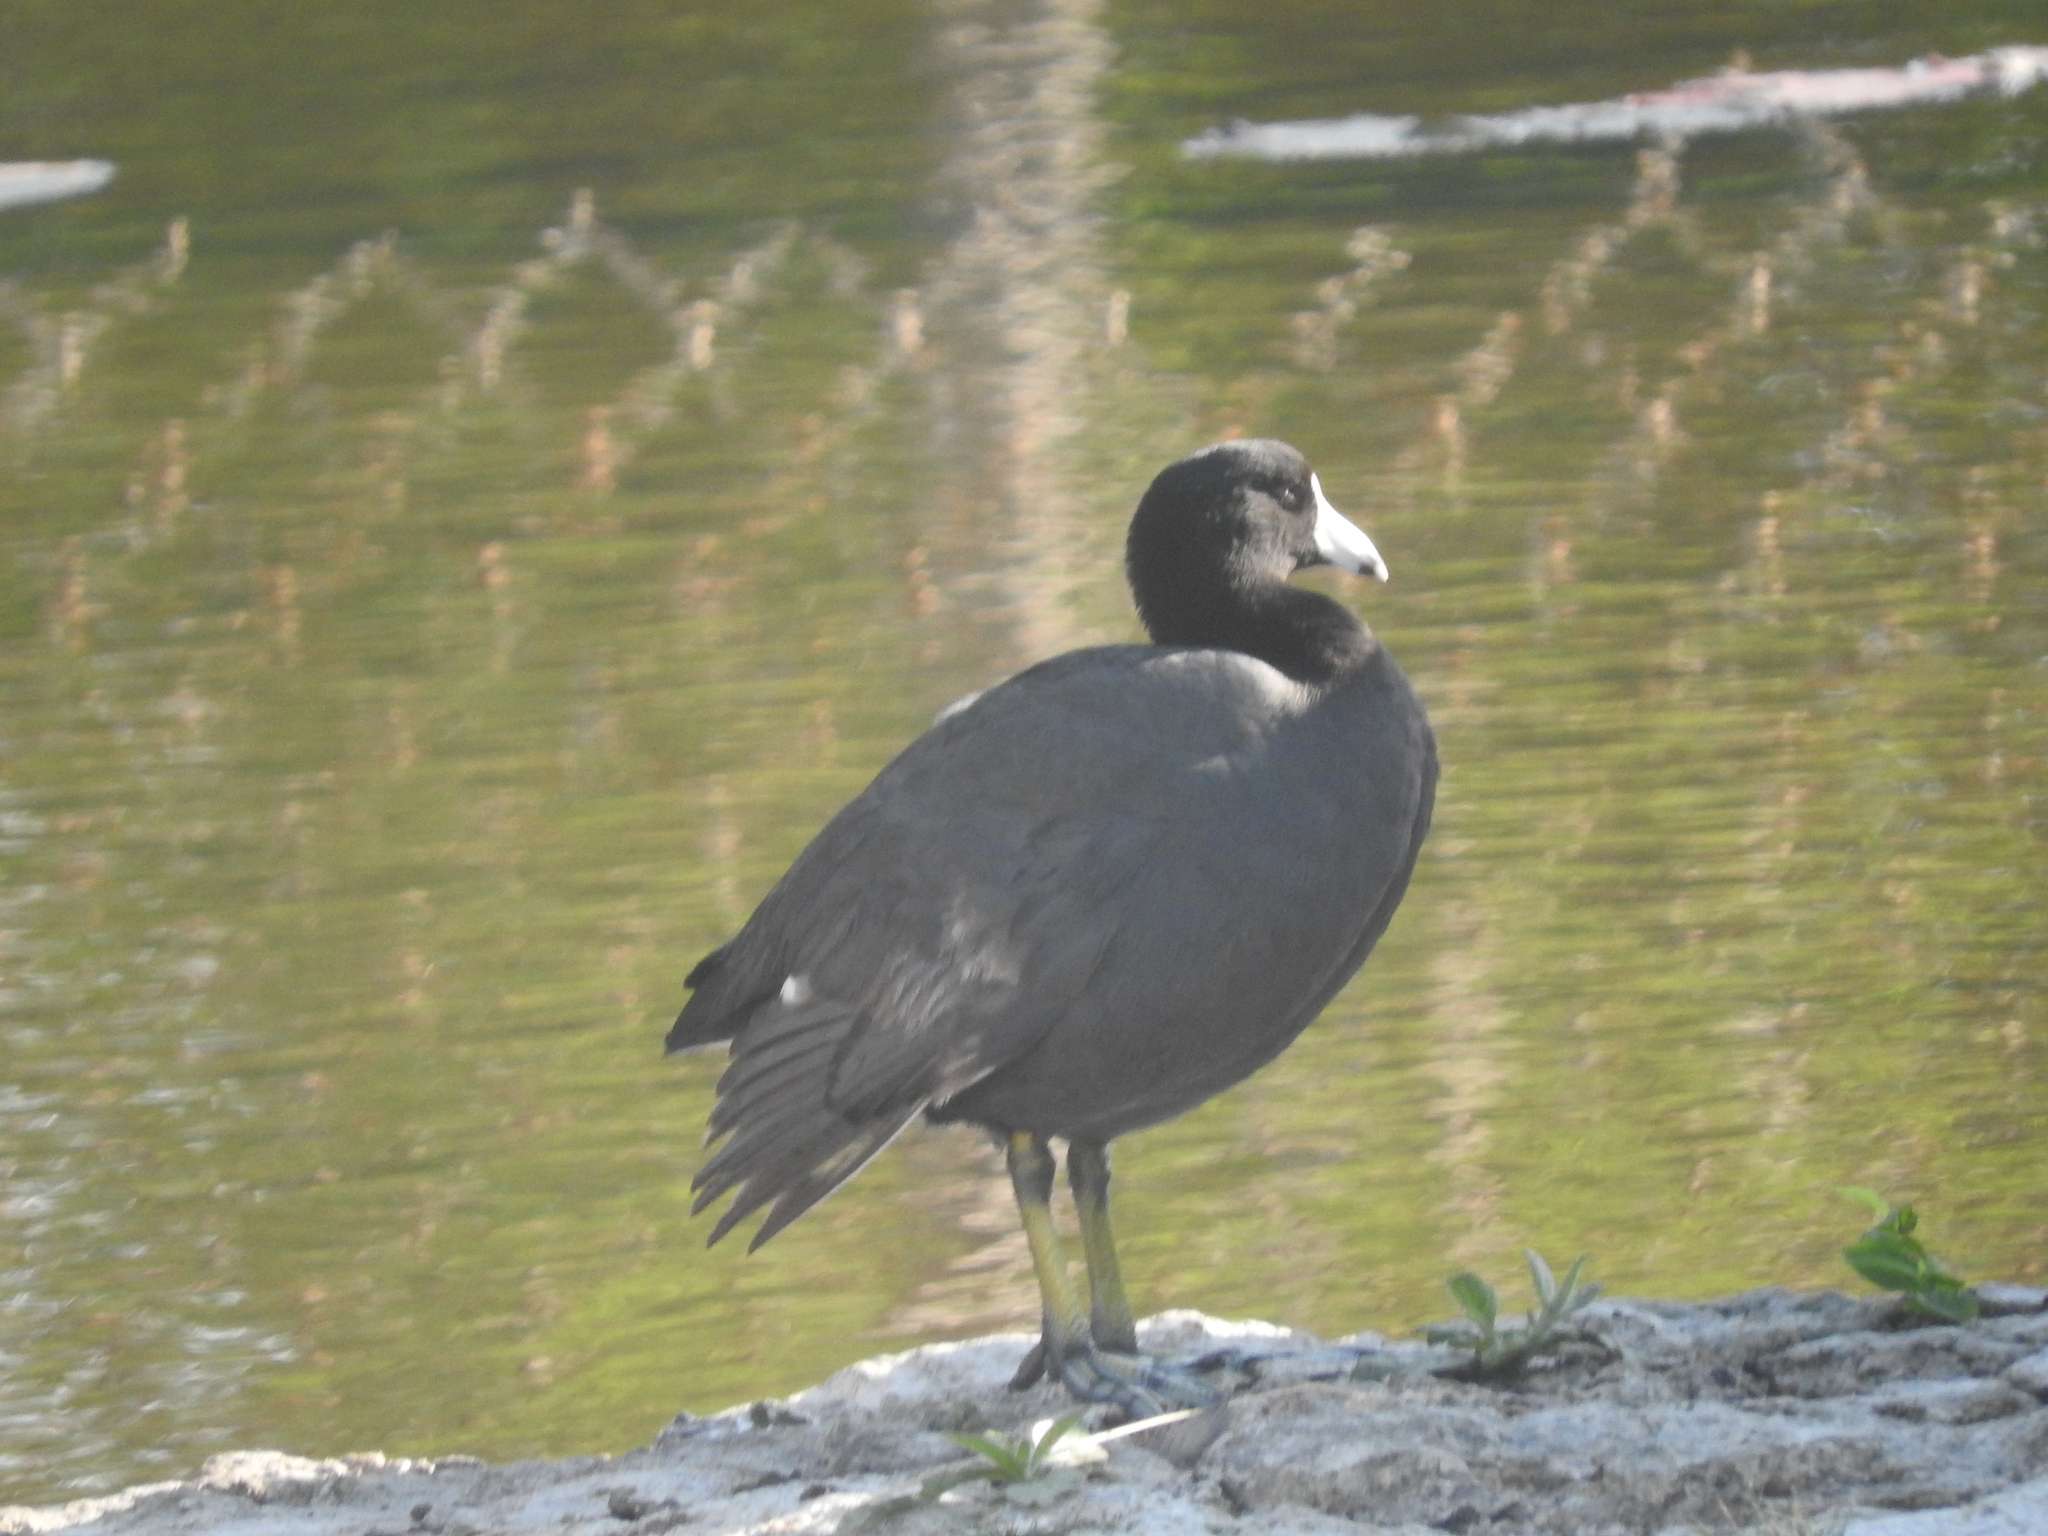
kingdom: Animalia
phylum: Chordata
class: Aves
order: Gruiformes
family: Rallidae
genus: Fulica
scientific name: Fulica americana
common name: American coot
